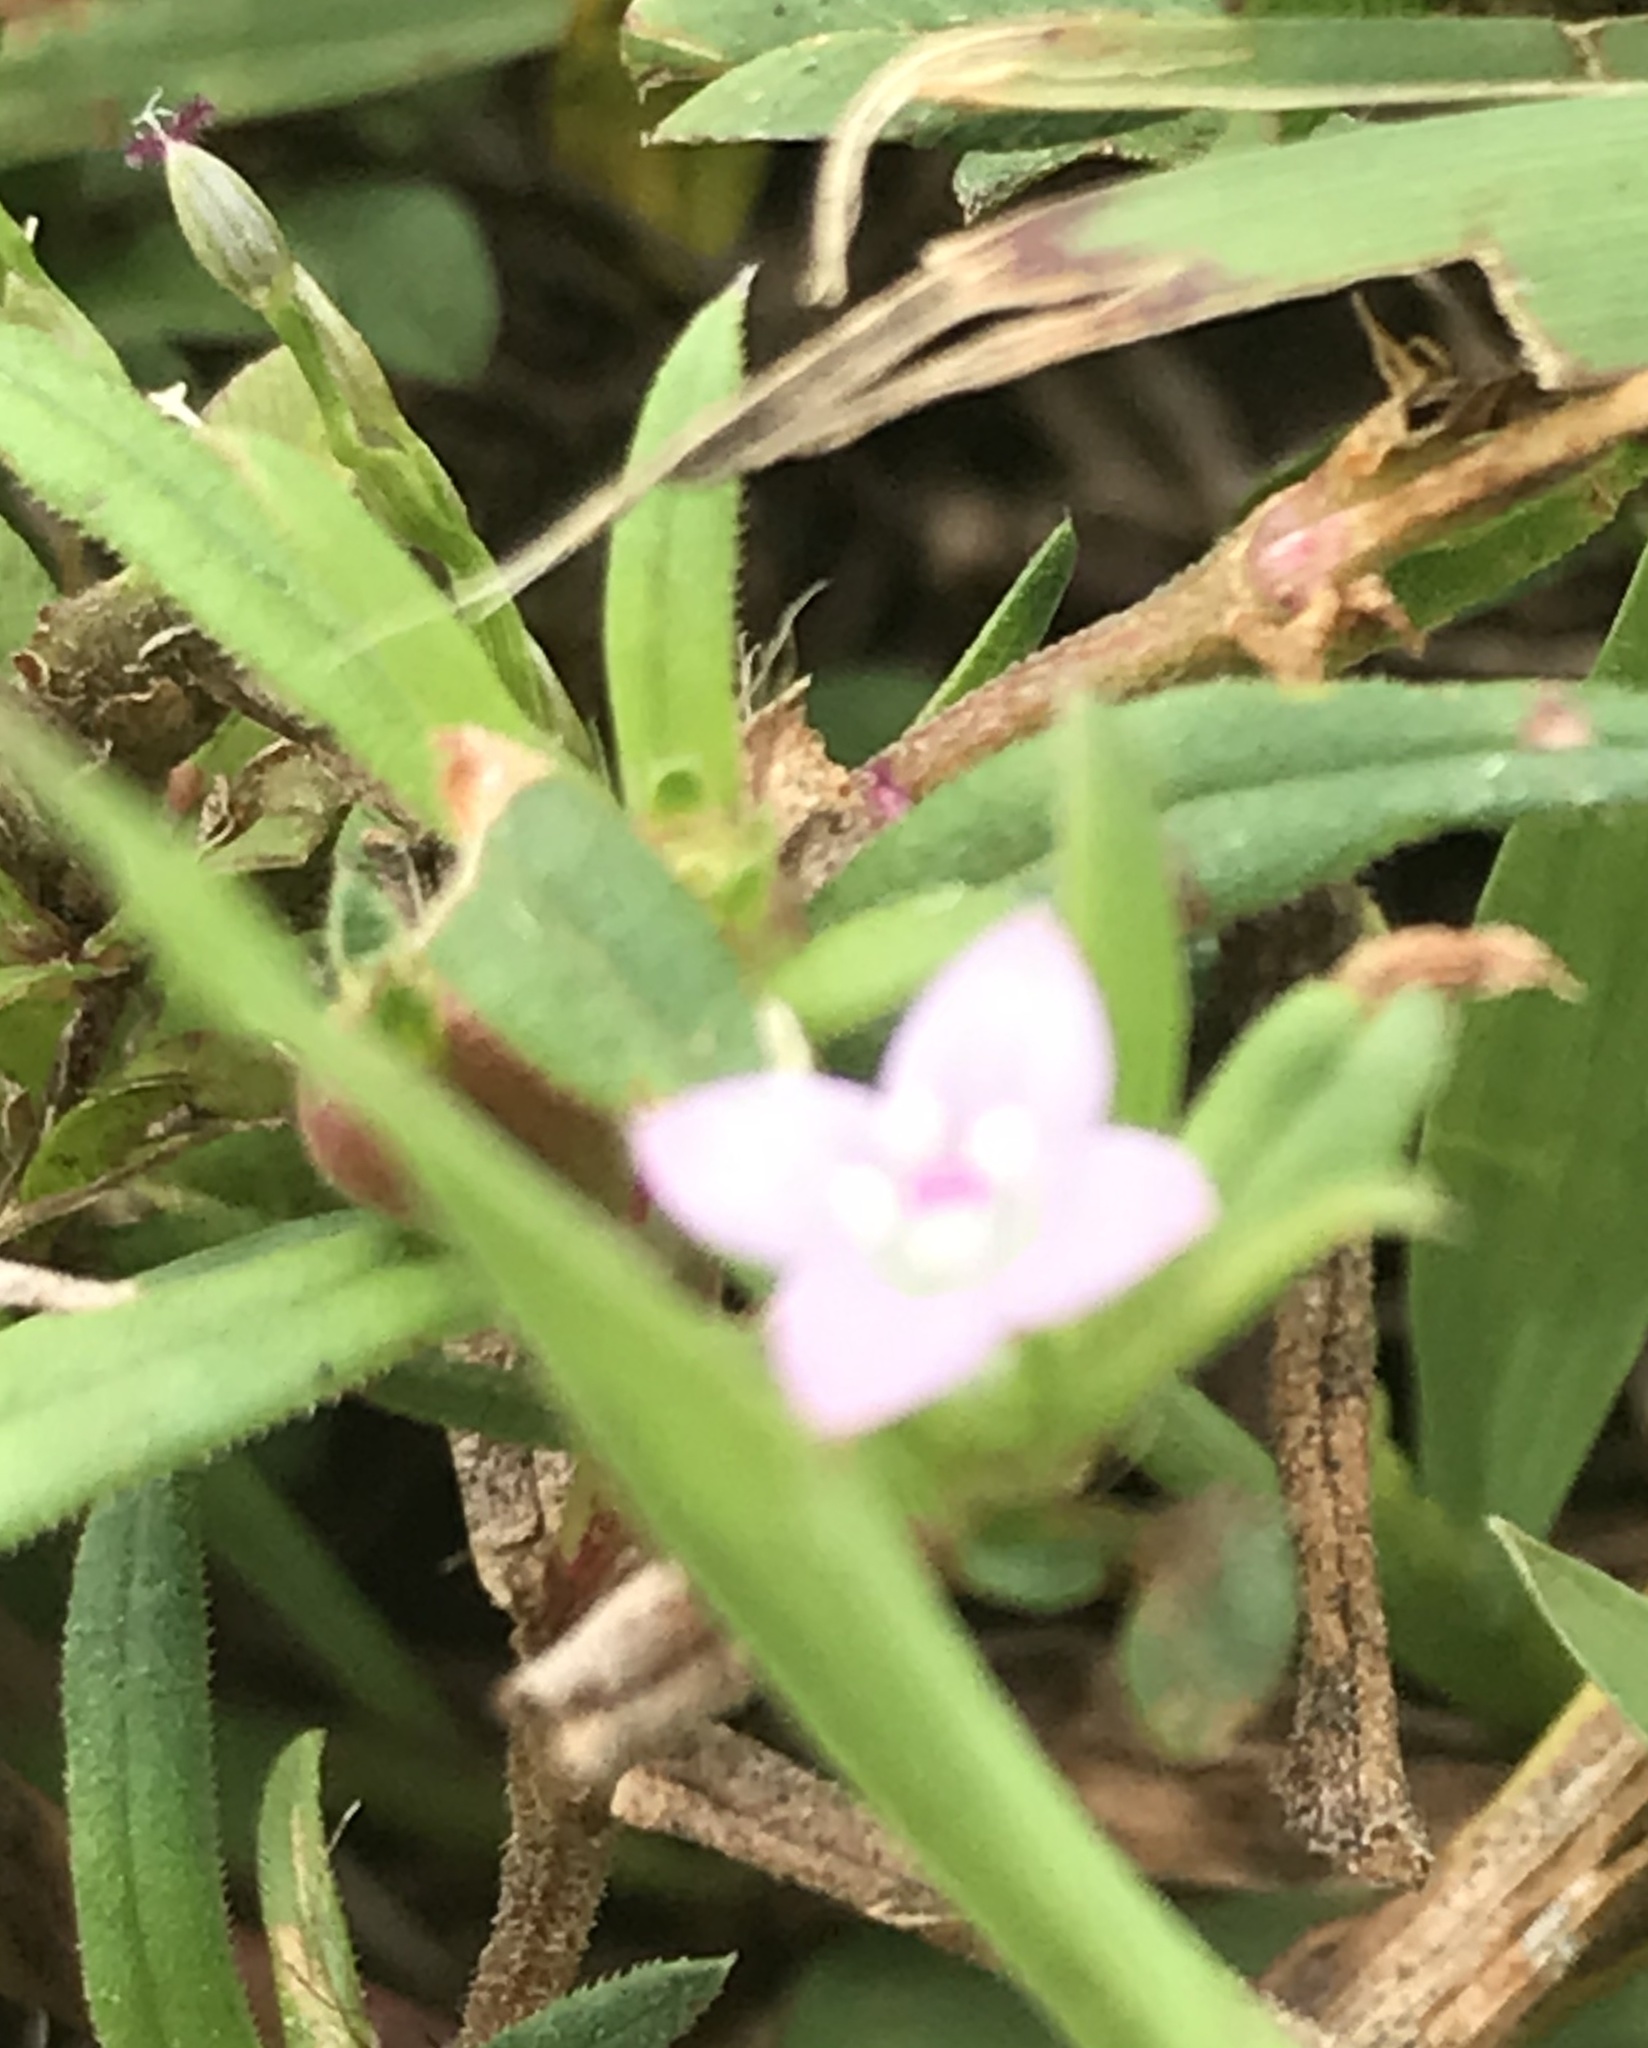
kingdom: Plantae
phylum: Tracheophyta
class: Magnoliopsida
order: Gentianales
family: Rubiaceae
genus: Hexasepalum
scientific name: Hexasepalum teres
